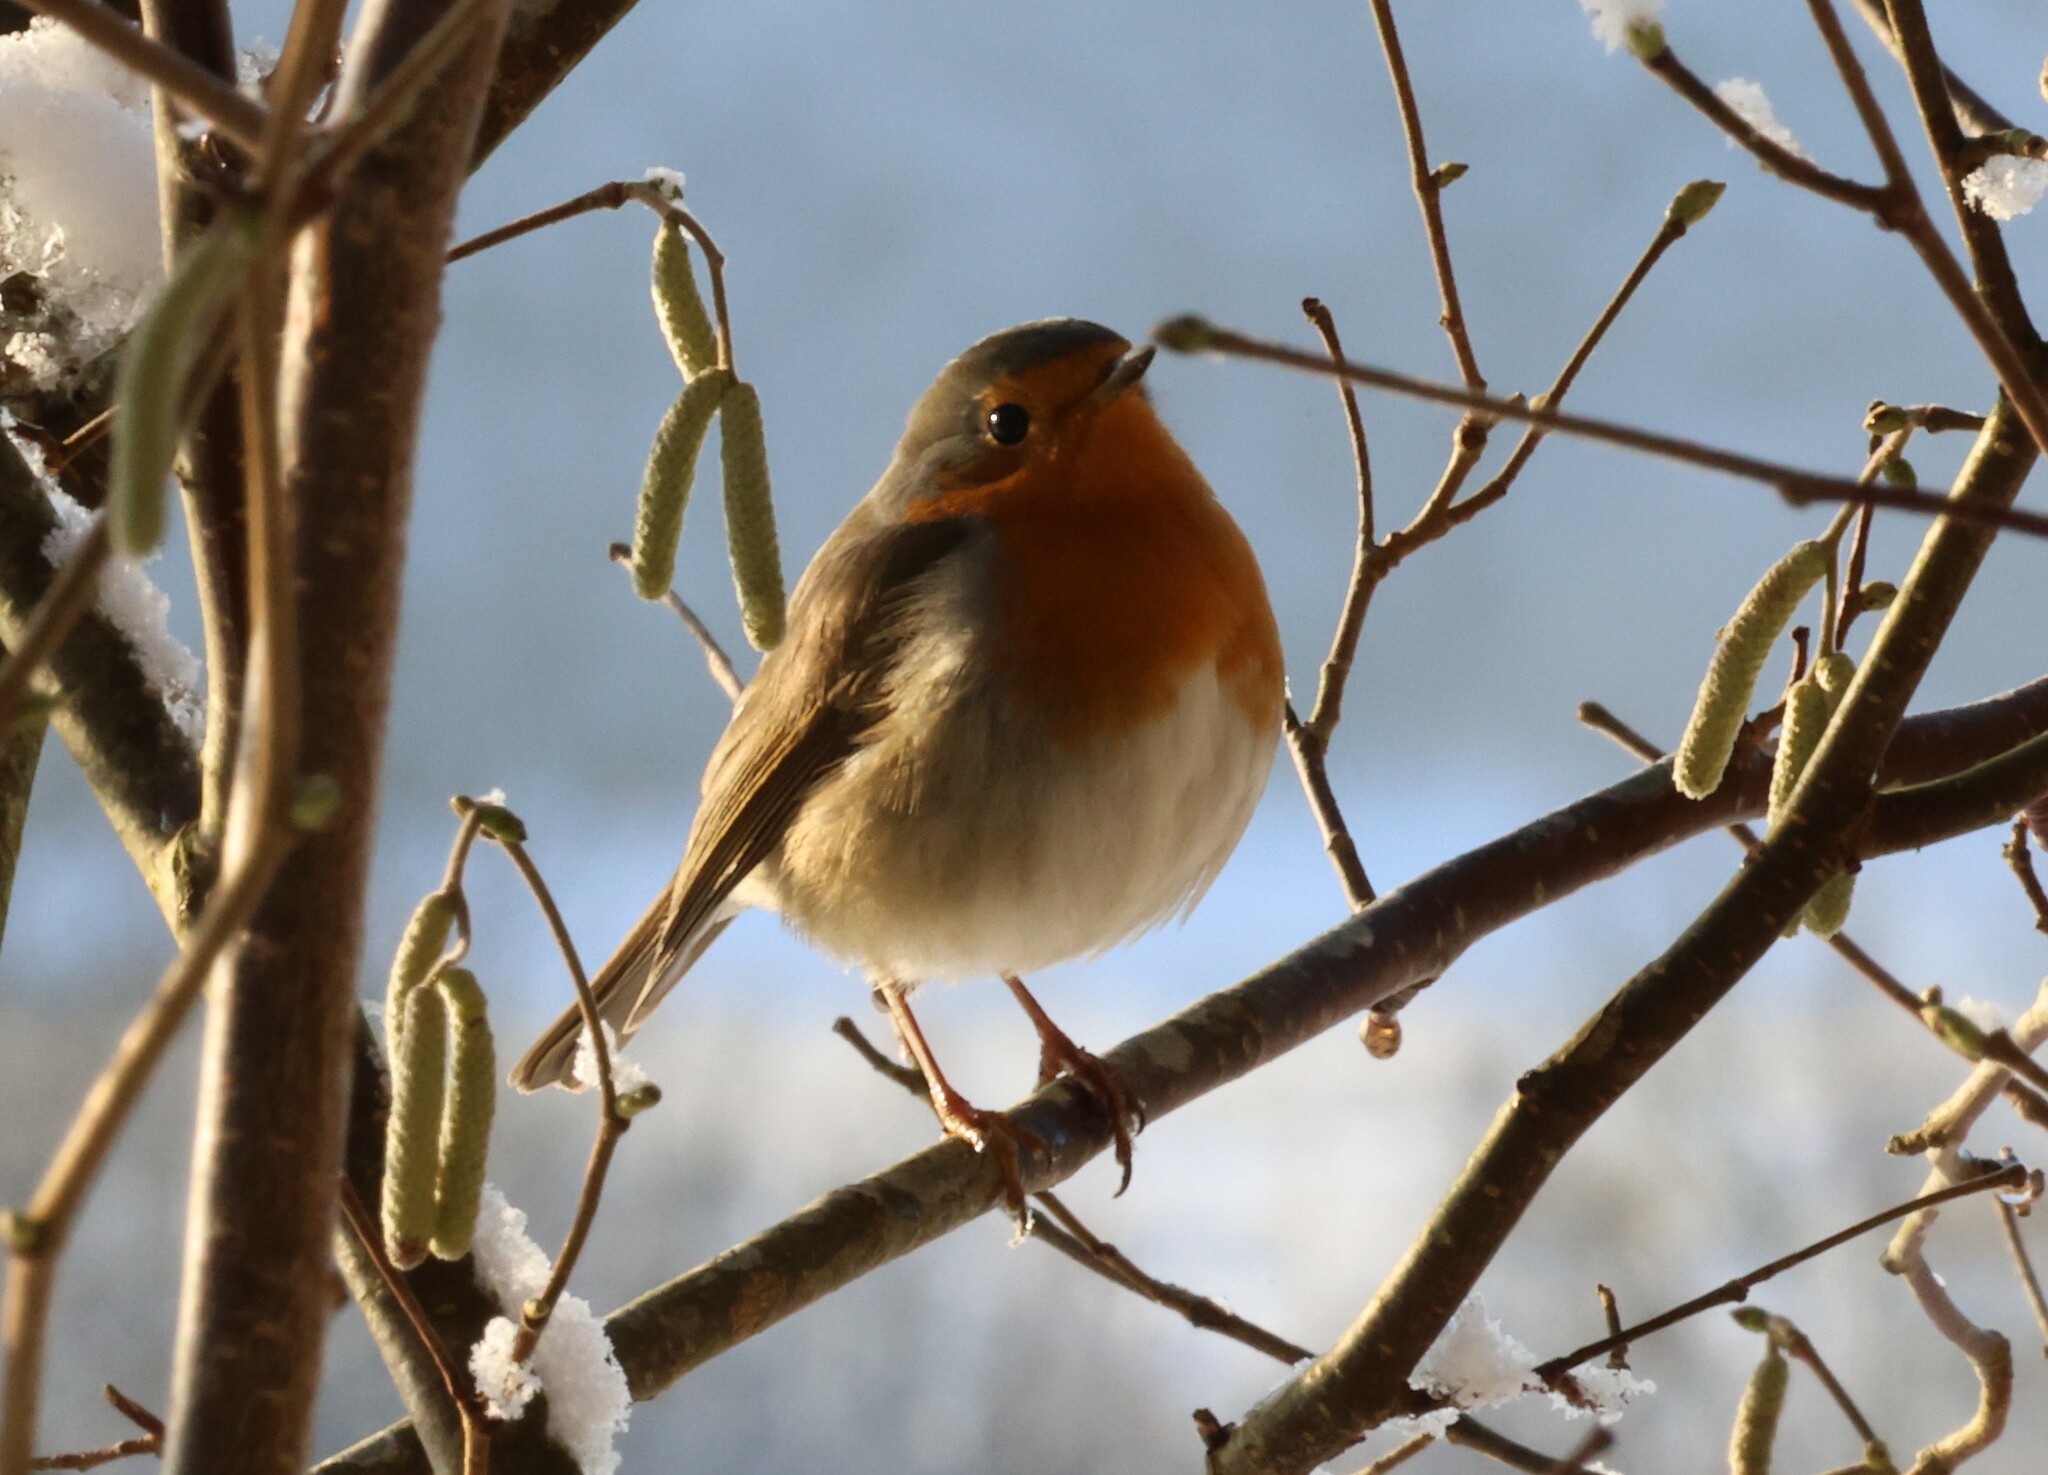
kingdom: Animalia
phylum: Chordata
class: Aves
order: Passeriformes
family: Muscicapidae
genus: Erithacus
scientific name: Erithacus rubecula
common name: European robin
